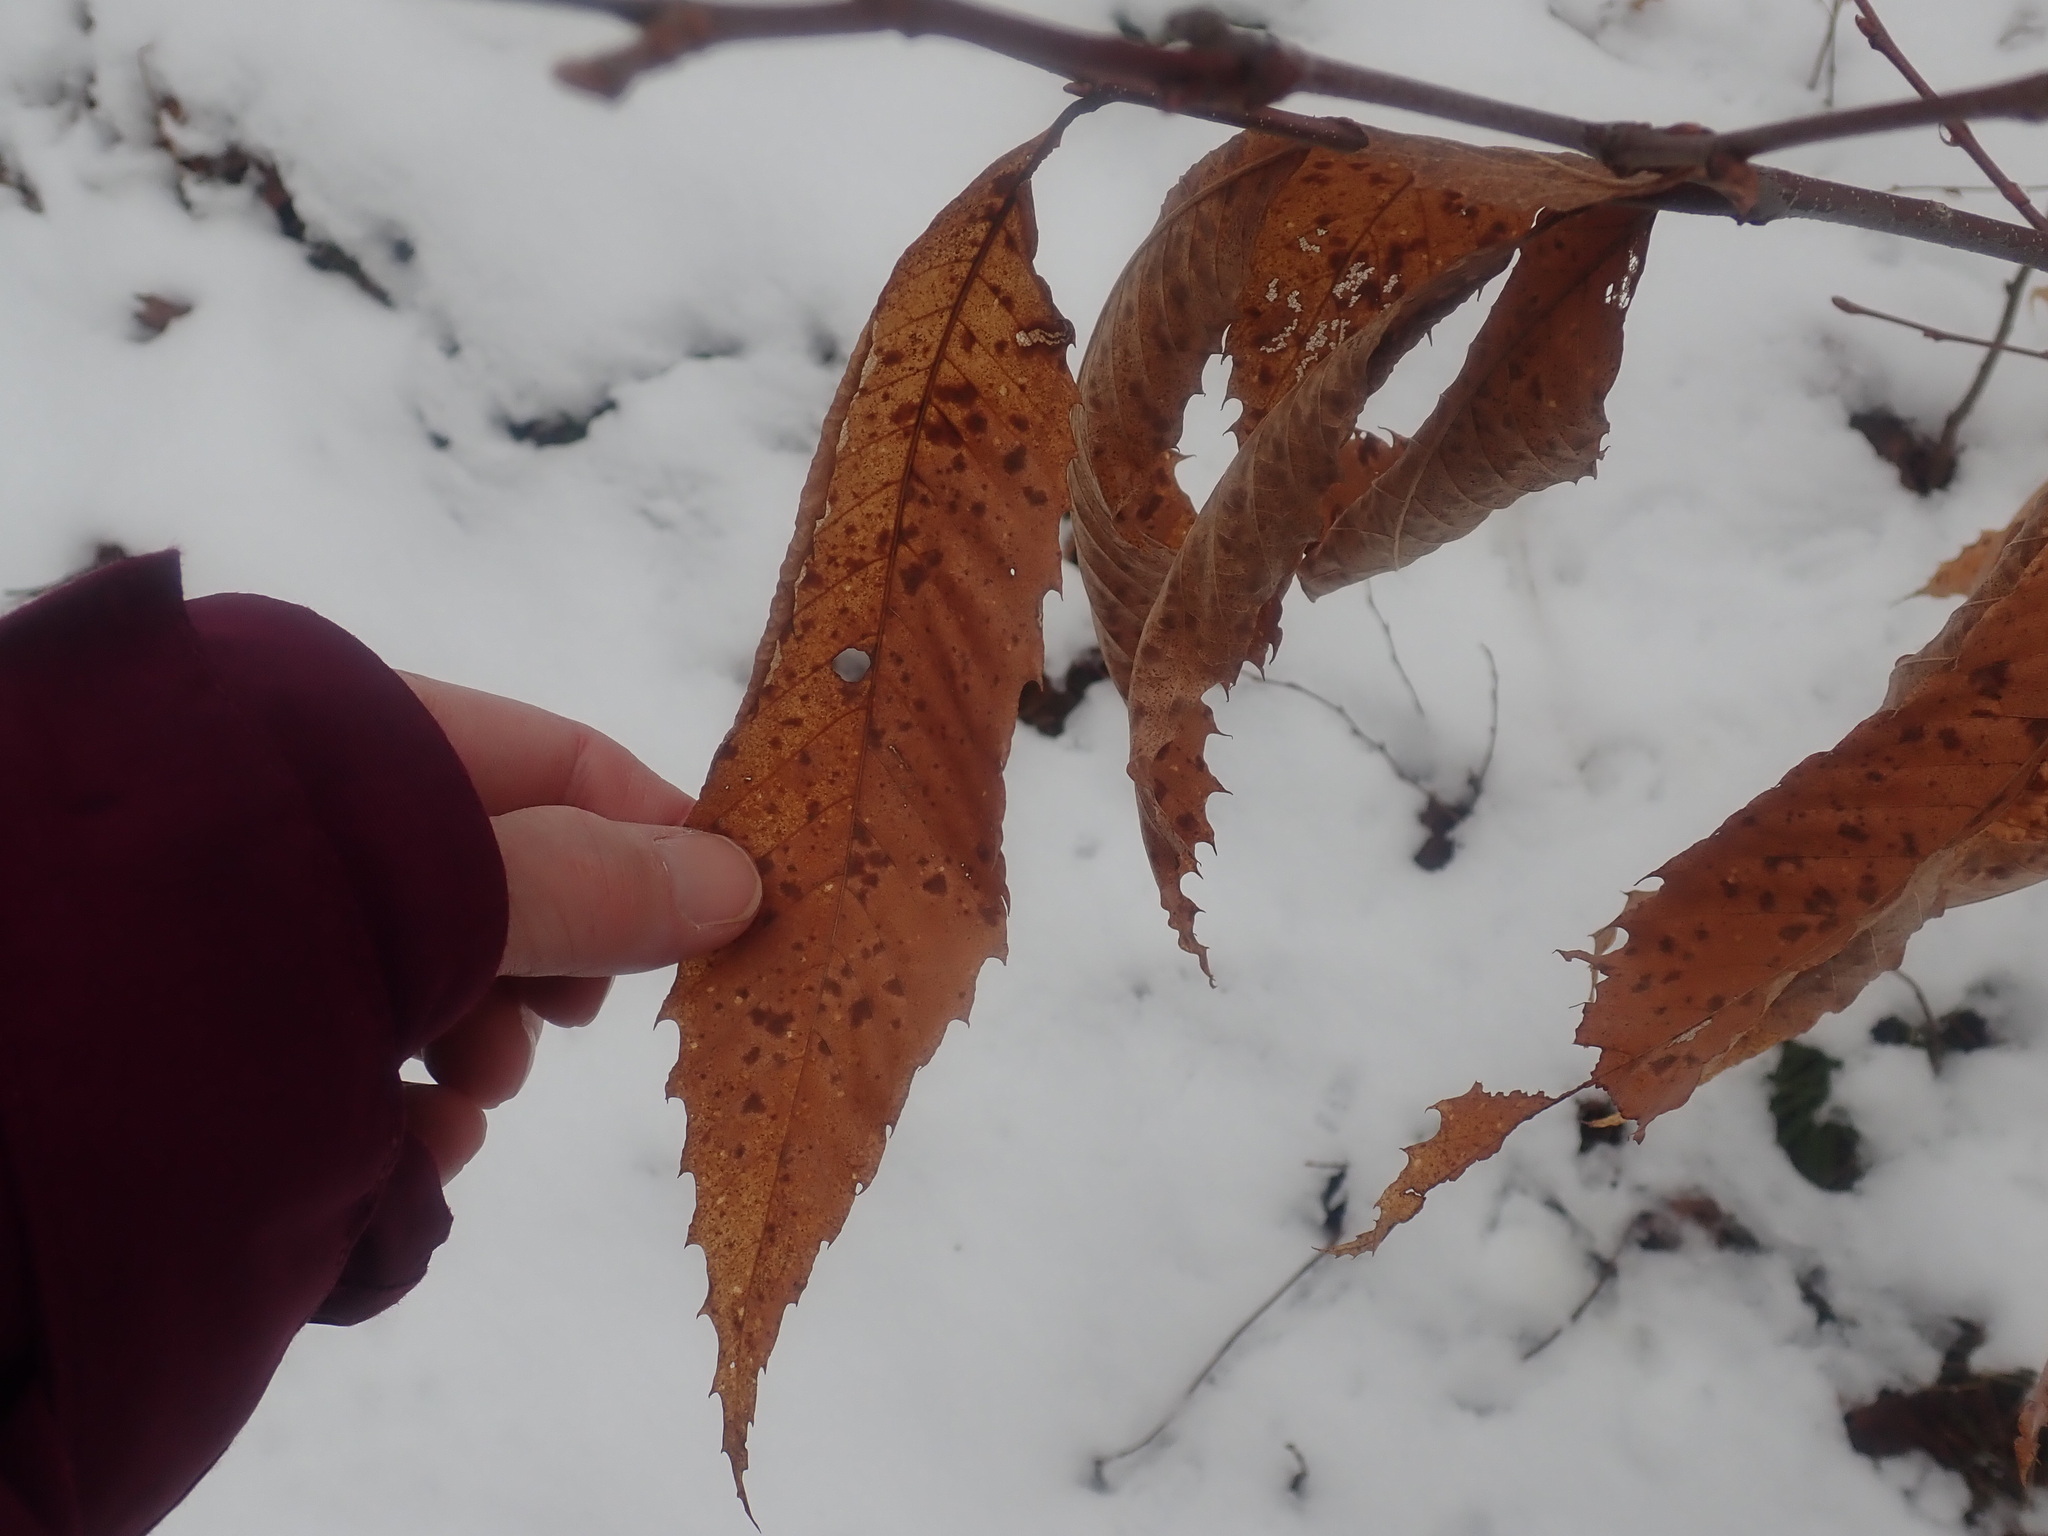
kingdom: Plantae
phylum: Tracheophyta
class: Magnoliopsida
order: Fagales
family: Fagaceae
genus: Castanea
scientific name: Castanea dentata
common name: American chestnut
